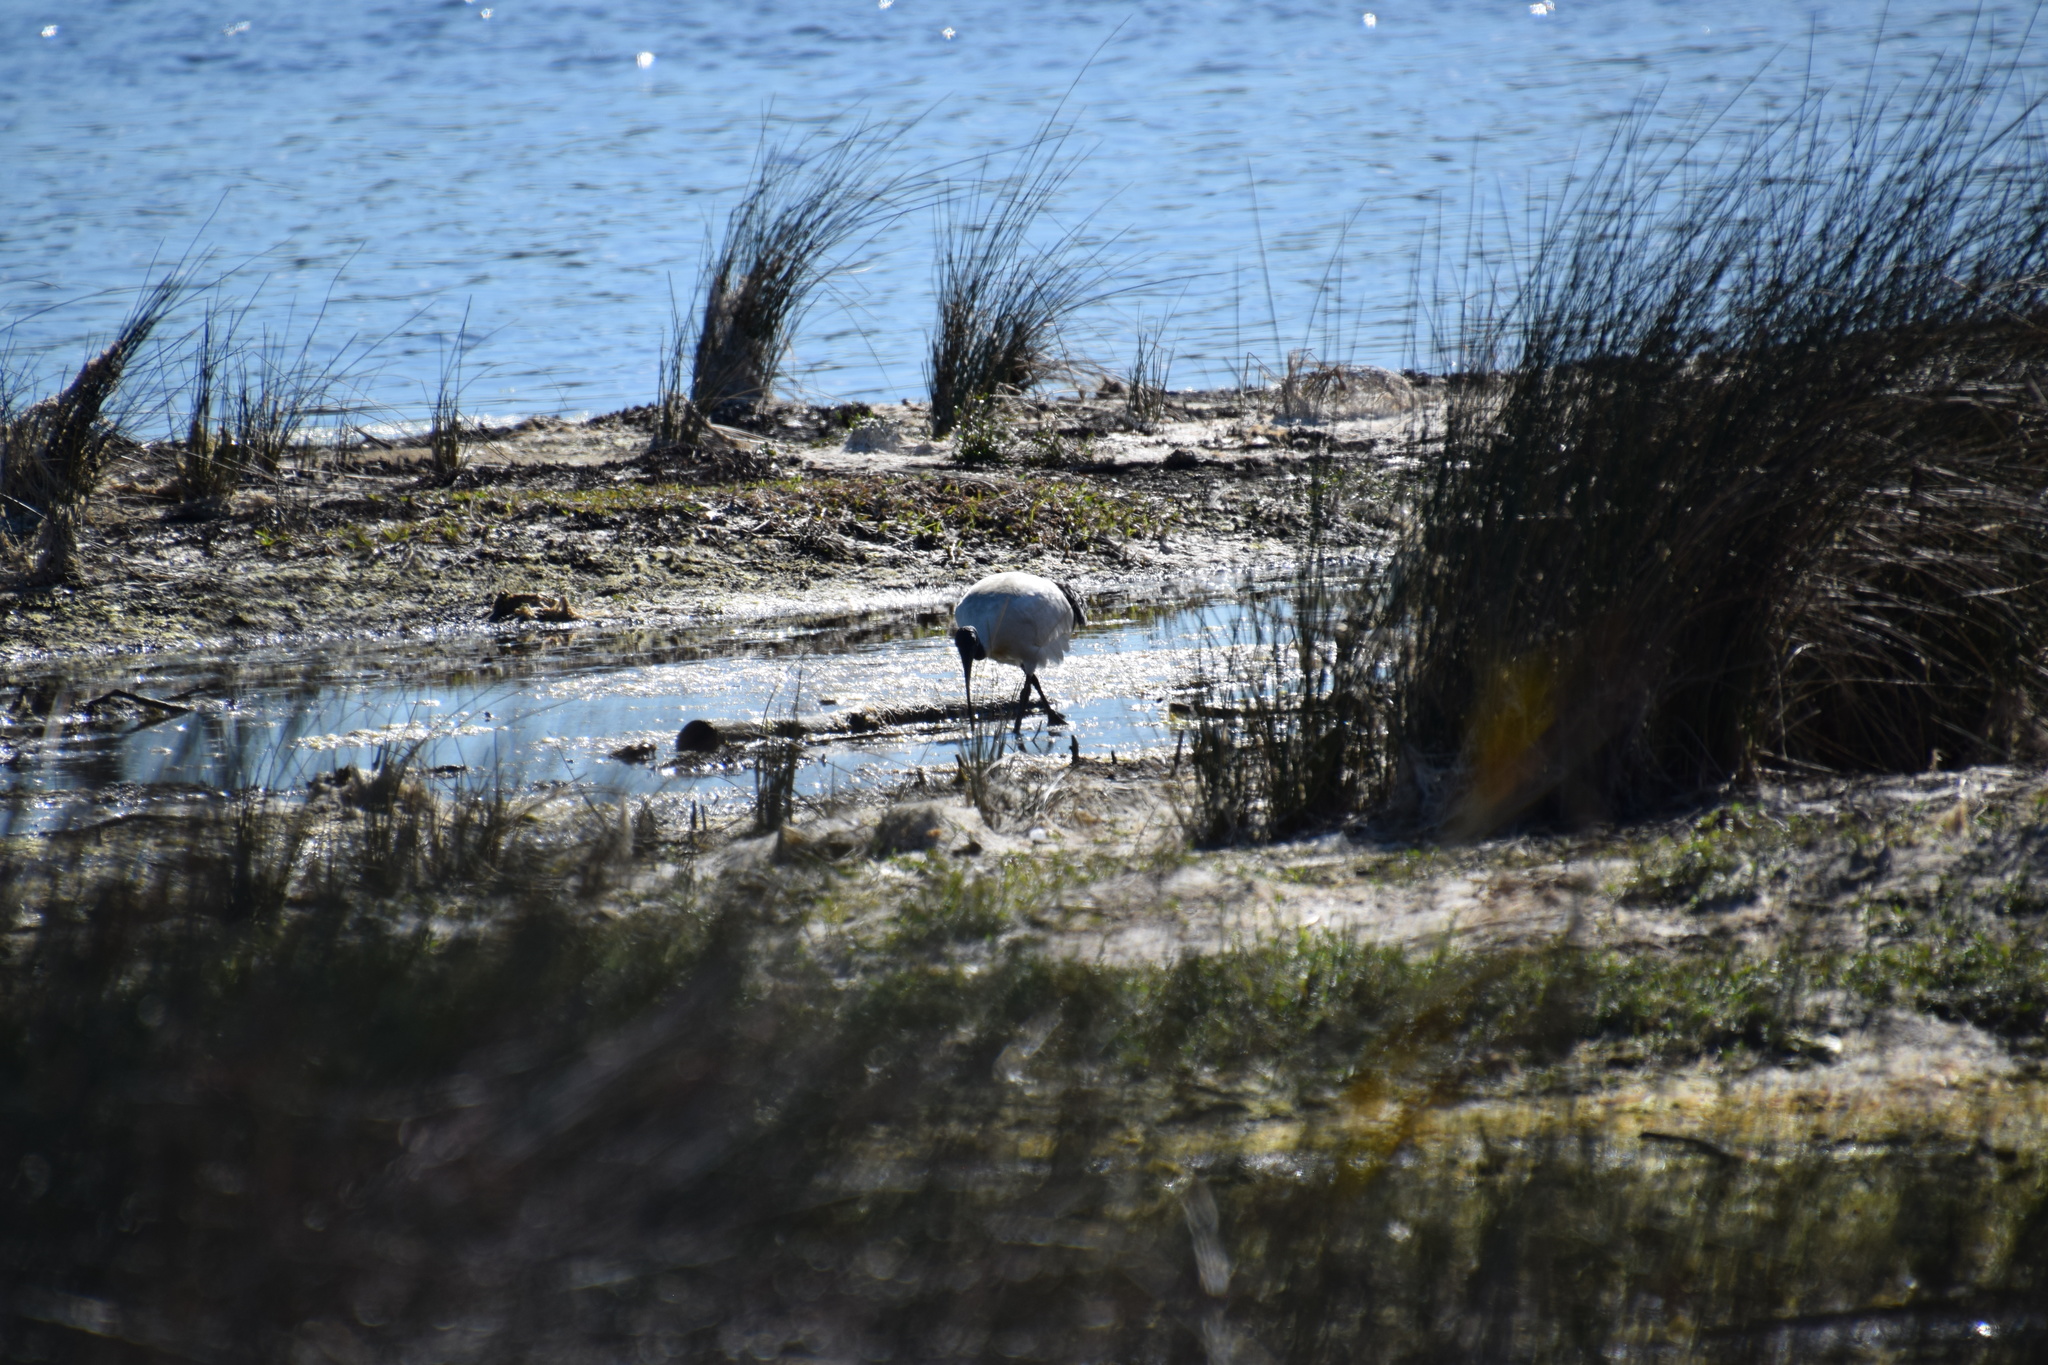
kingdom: Animalia
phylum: Chordata
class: Aves
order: Pelecaniformes
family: Threskiornithidae
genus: Threskiornis
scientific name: Threskiornis molucca
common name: Australian white ibis
